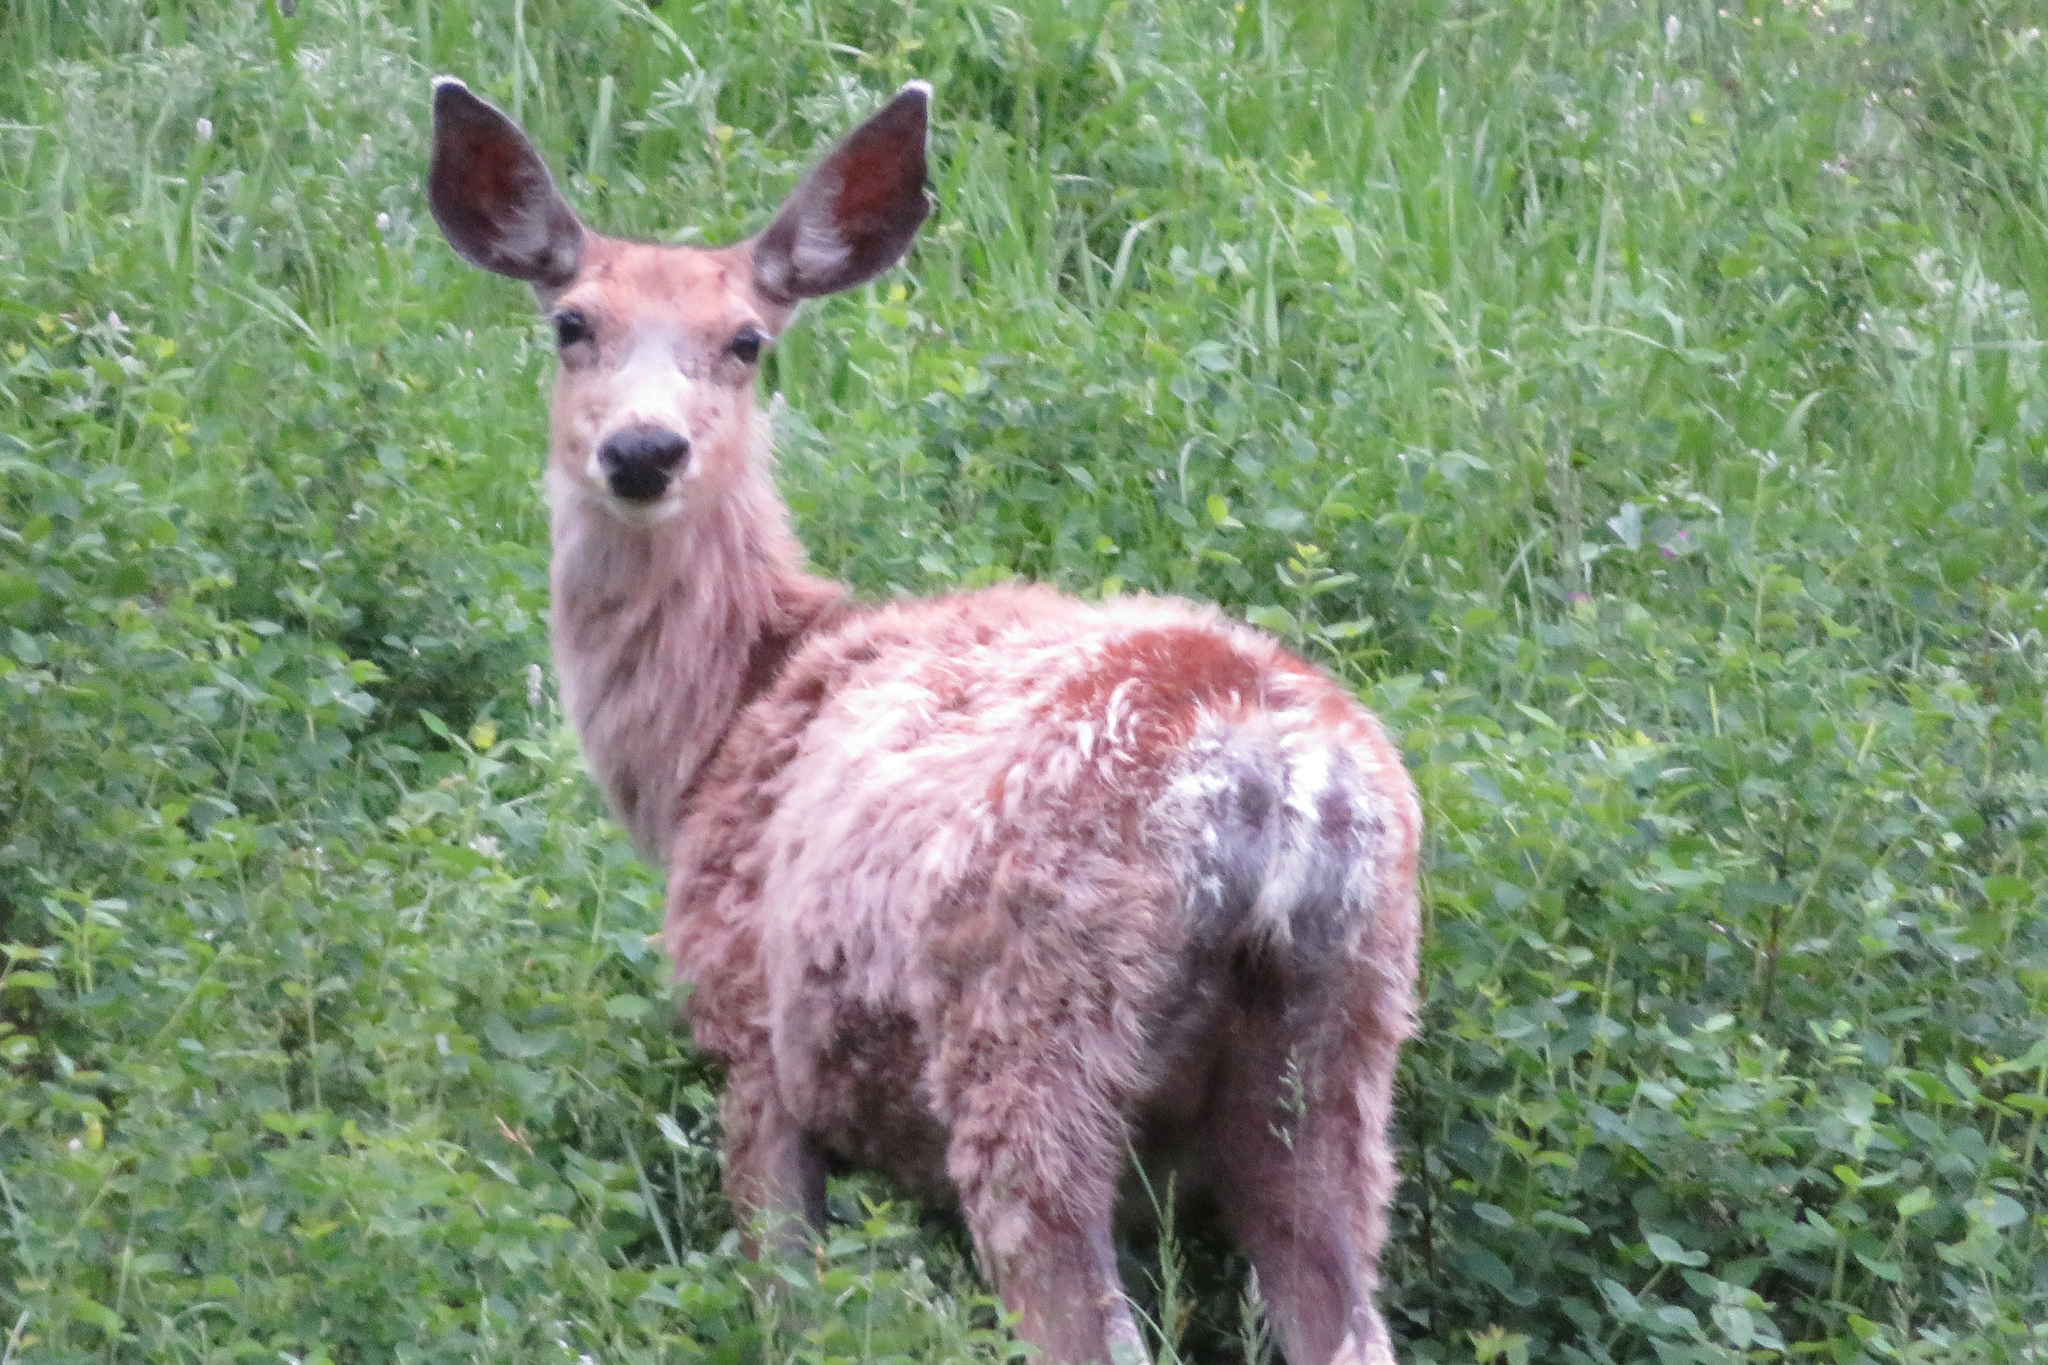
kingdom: Animalia
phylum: Chordata
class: Mammalia
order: Artiodactyla
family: Cervidae
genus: Odocoileus
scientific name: Odocoileus hemionus
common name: Mule deer
